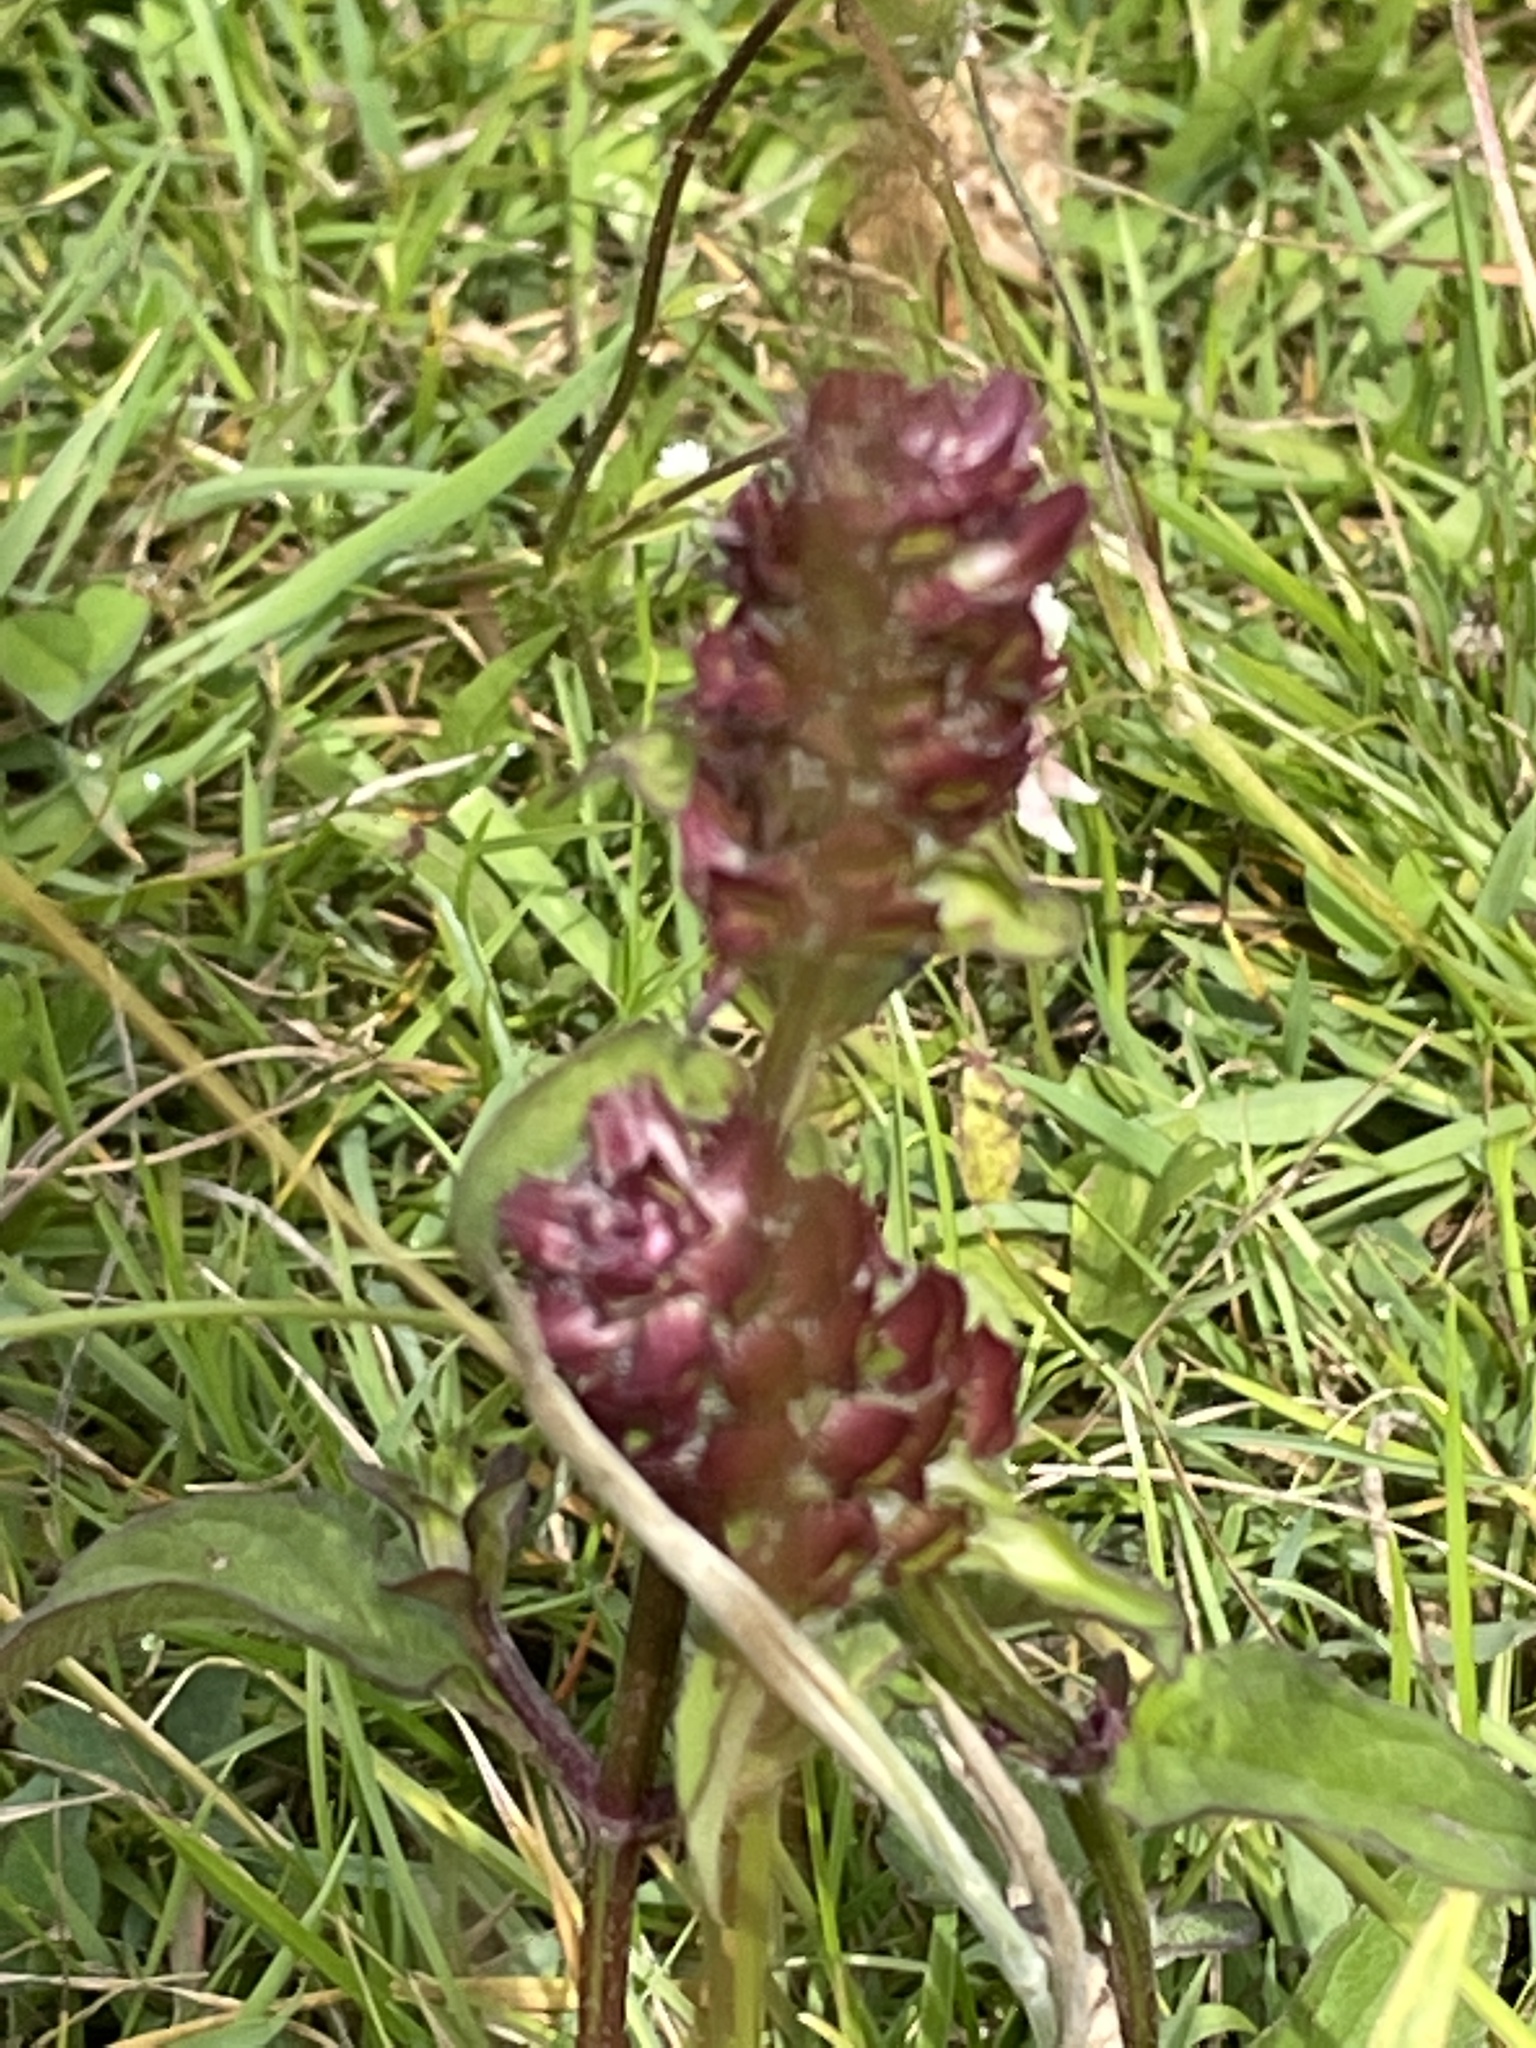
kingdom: Plantae
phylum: Tracheophyta
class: Magnoliopsida
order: Lamiales
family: Lamiaceae
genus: Prunella
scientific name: Prunella vulgaris
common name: Heal-all
